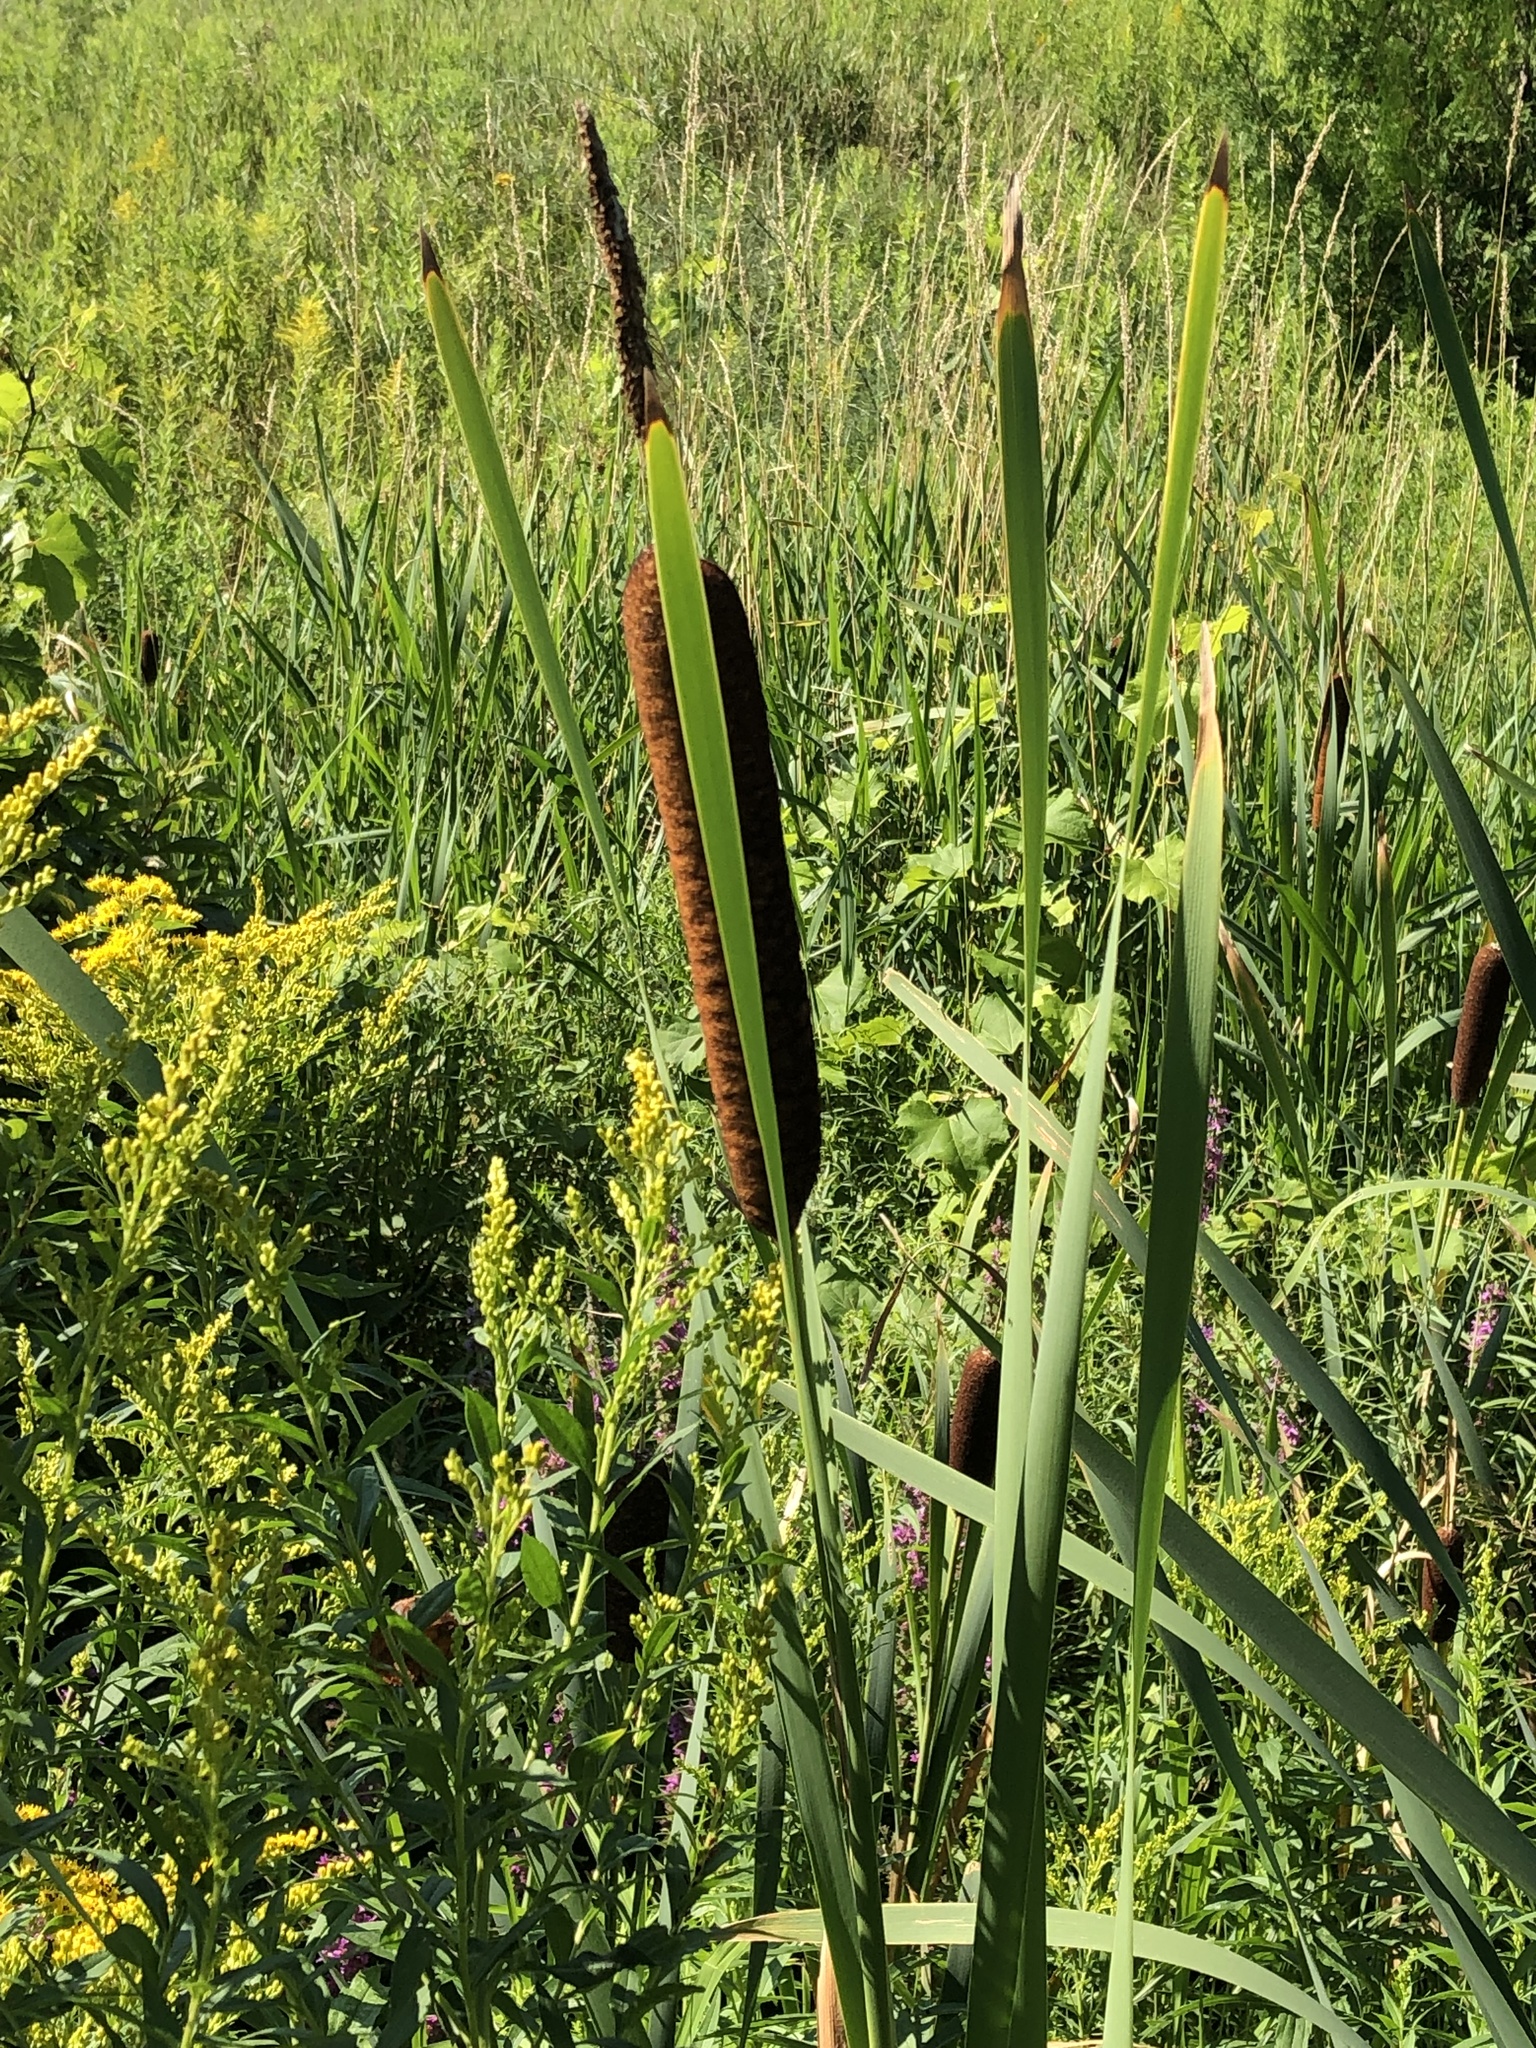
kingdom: Plantae
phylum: Tracheophyta
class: Liliopsida
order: Poales
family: Typhaceae
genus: Typha
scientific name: Typha latifolia
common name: Broadleaf cattail
